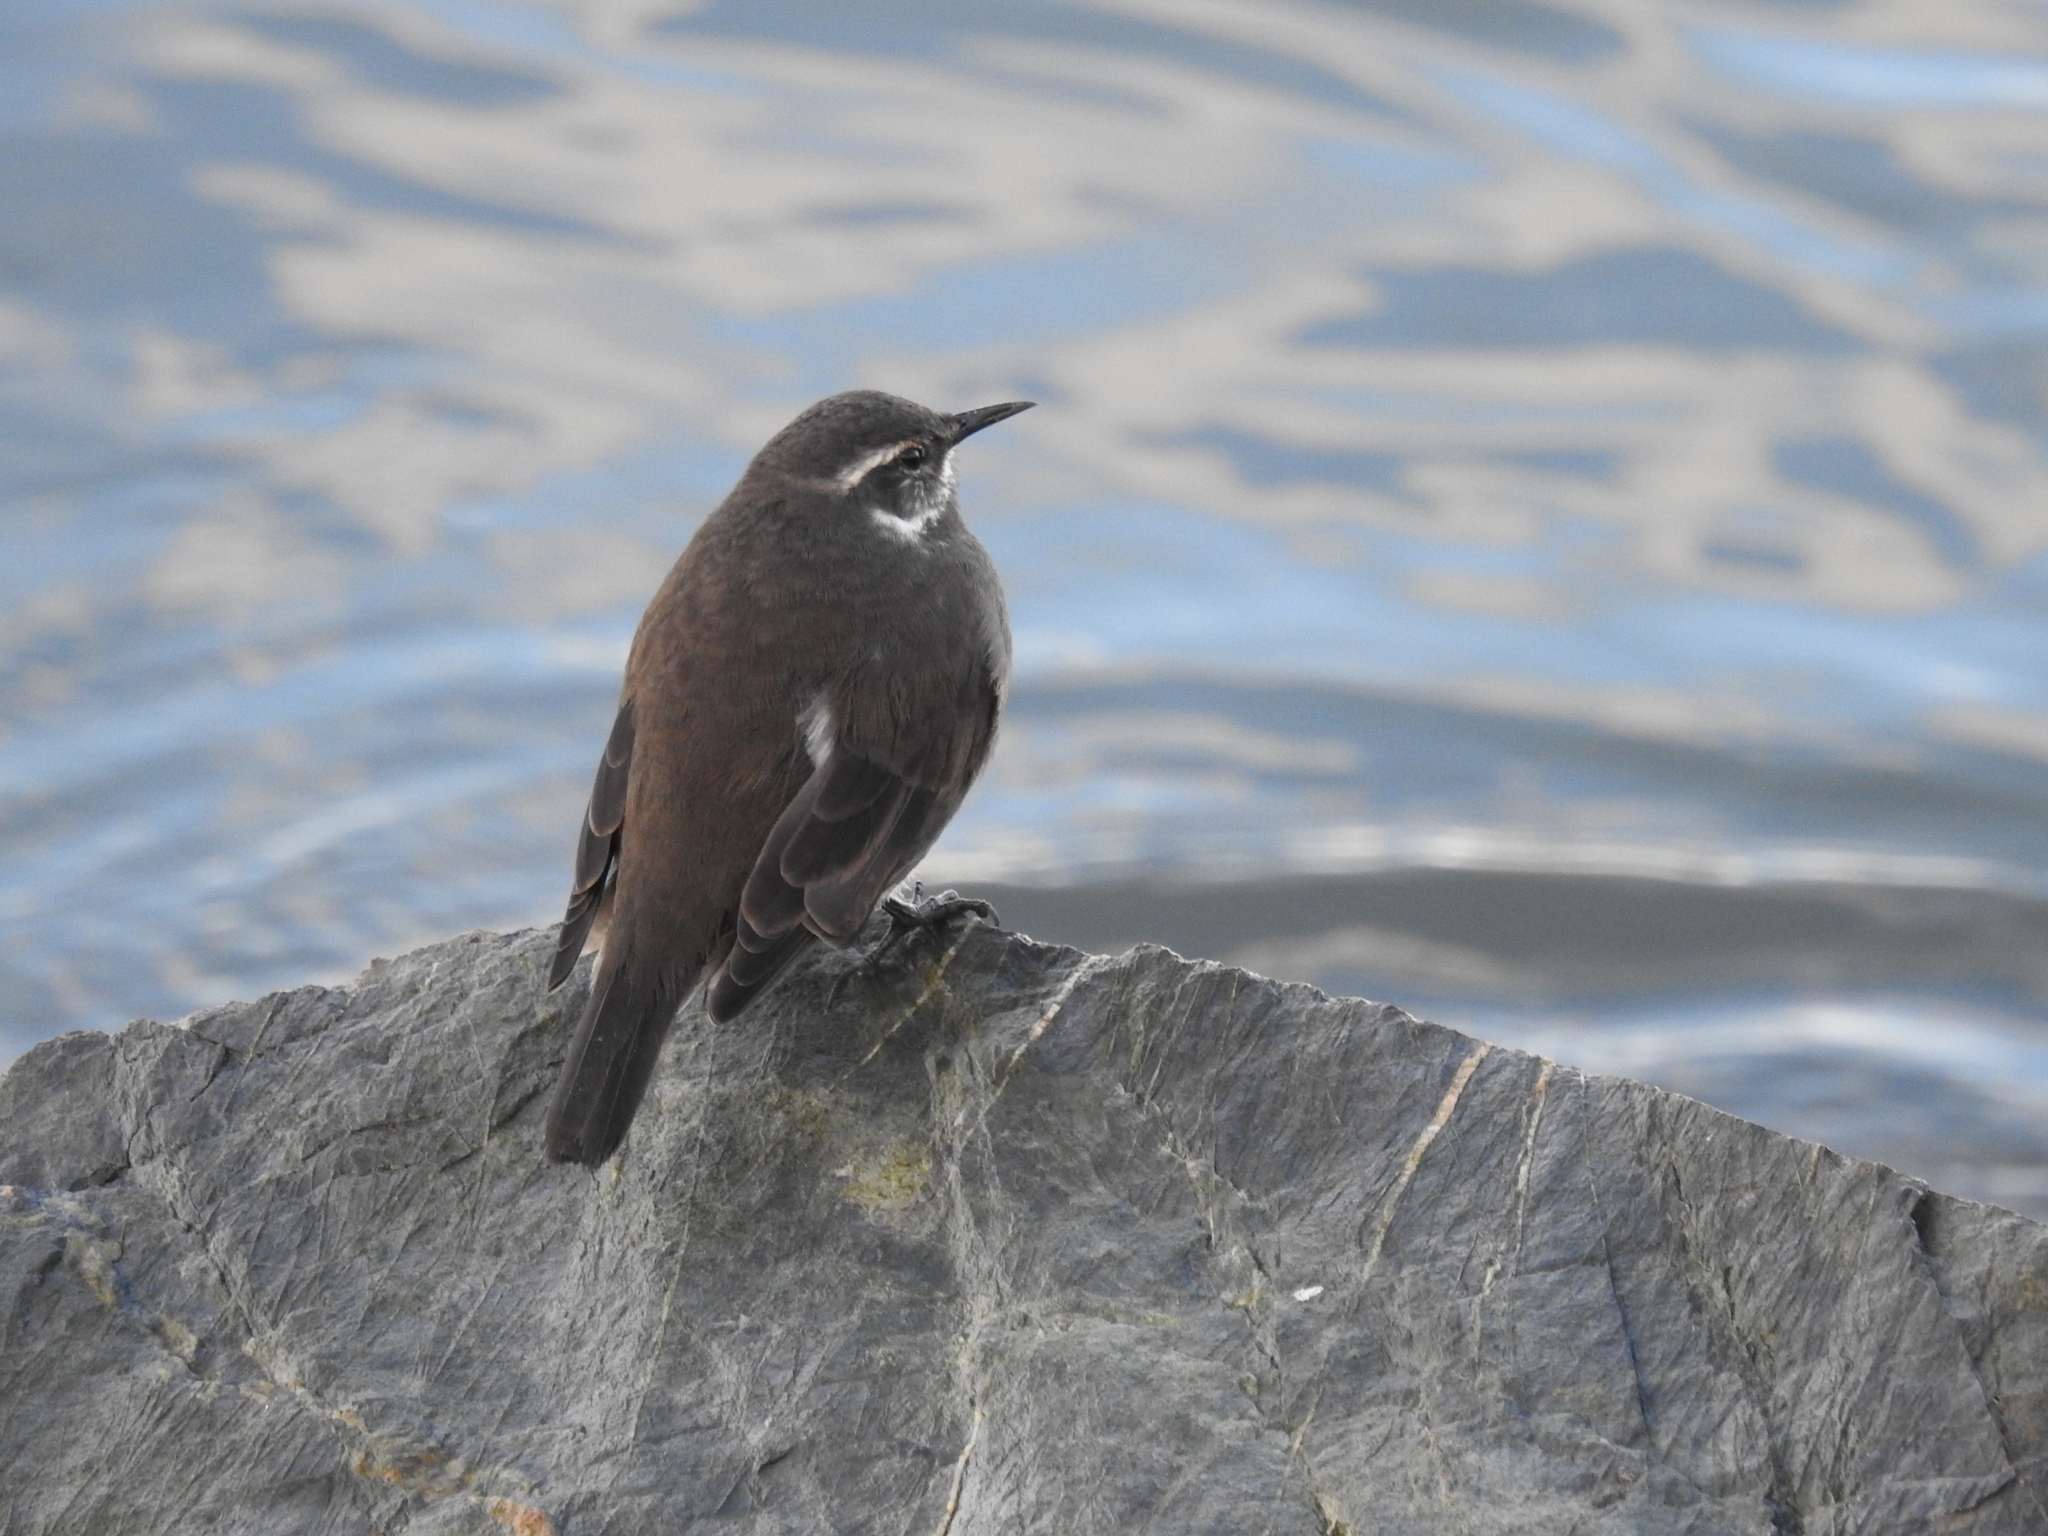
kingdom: Animalia
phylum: Chordata
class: Aves
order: Passeriformes
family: Furnariidae
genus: Cinclodes
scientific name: Cinclodes patagonicus
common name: Dark-bellied cinclodes
